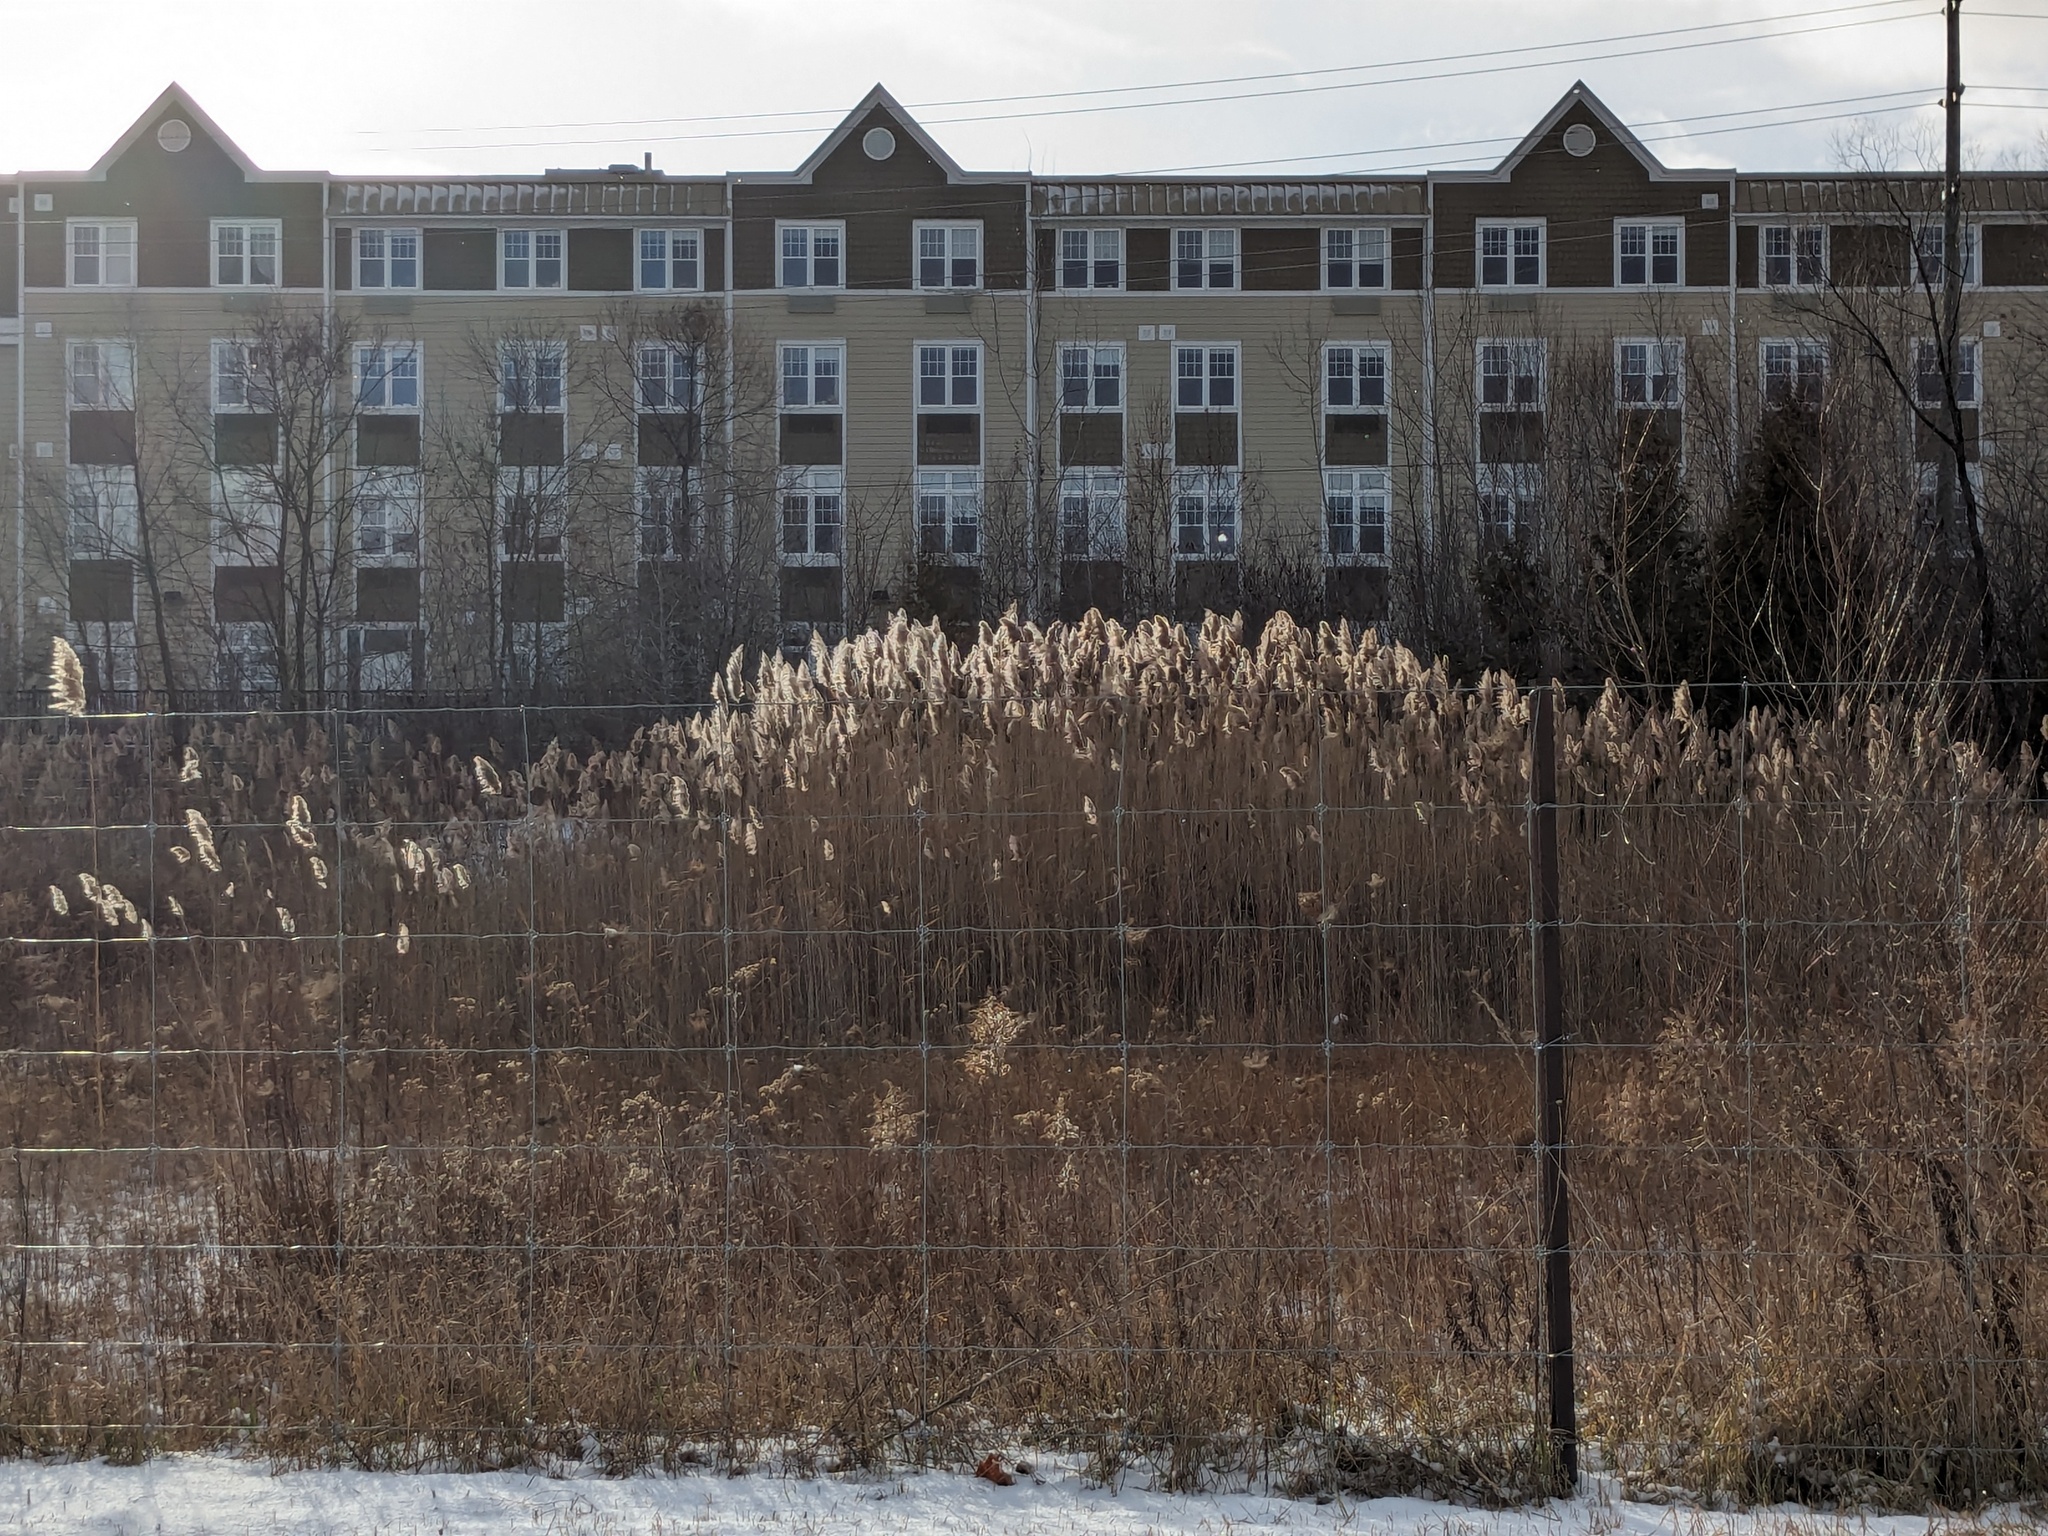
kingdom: Plantae
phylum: Tracheophyta
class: Liliopsida
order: Poales
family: Poaceae
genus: Phragmites
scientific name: Phragmites australis
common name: Common reed
